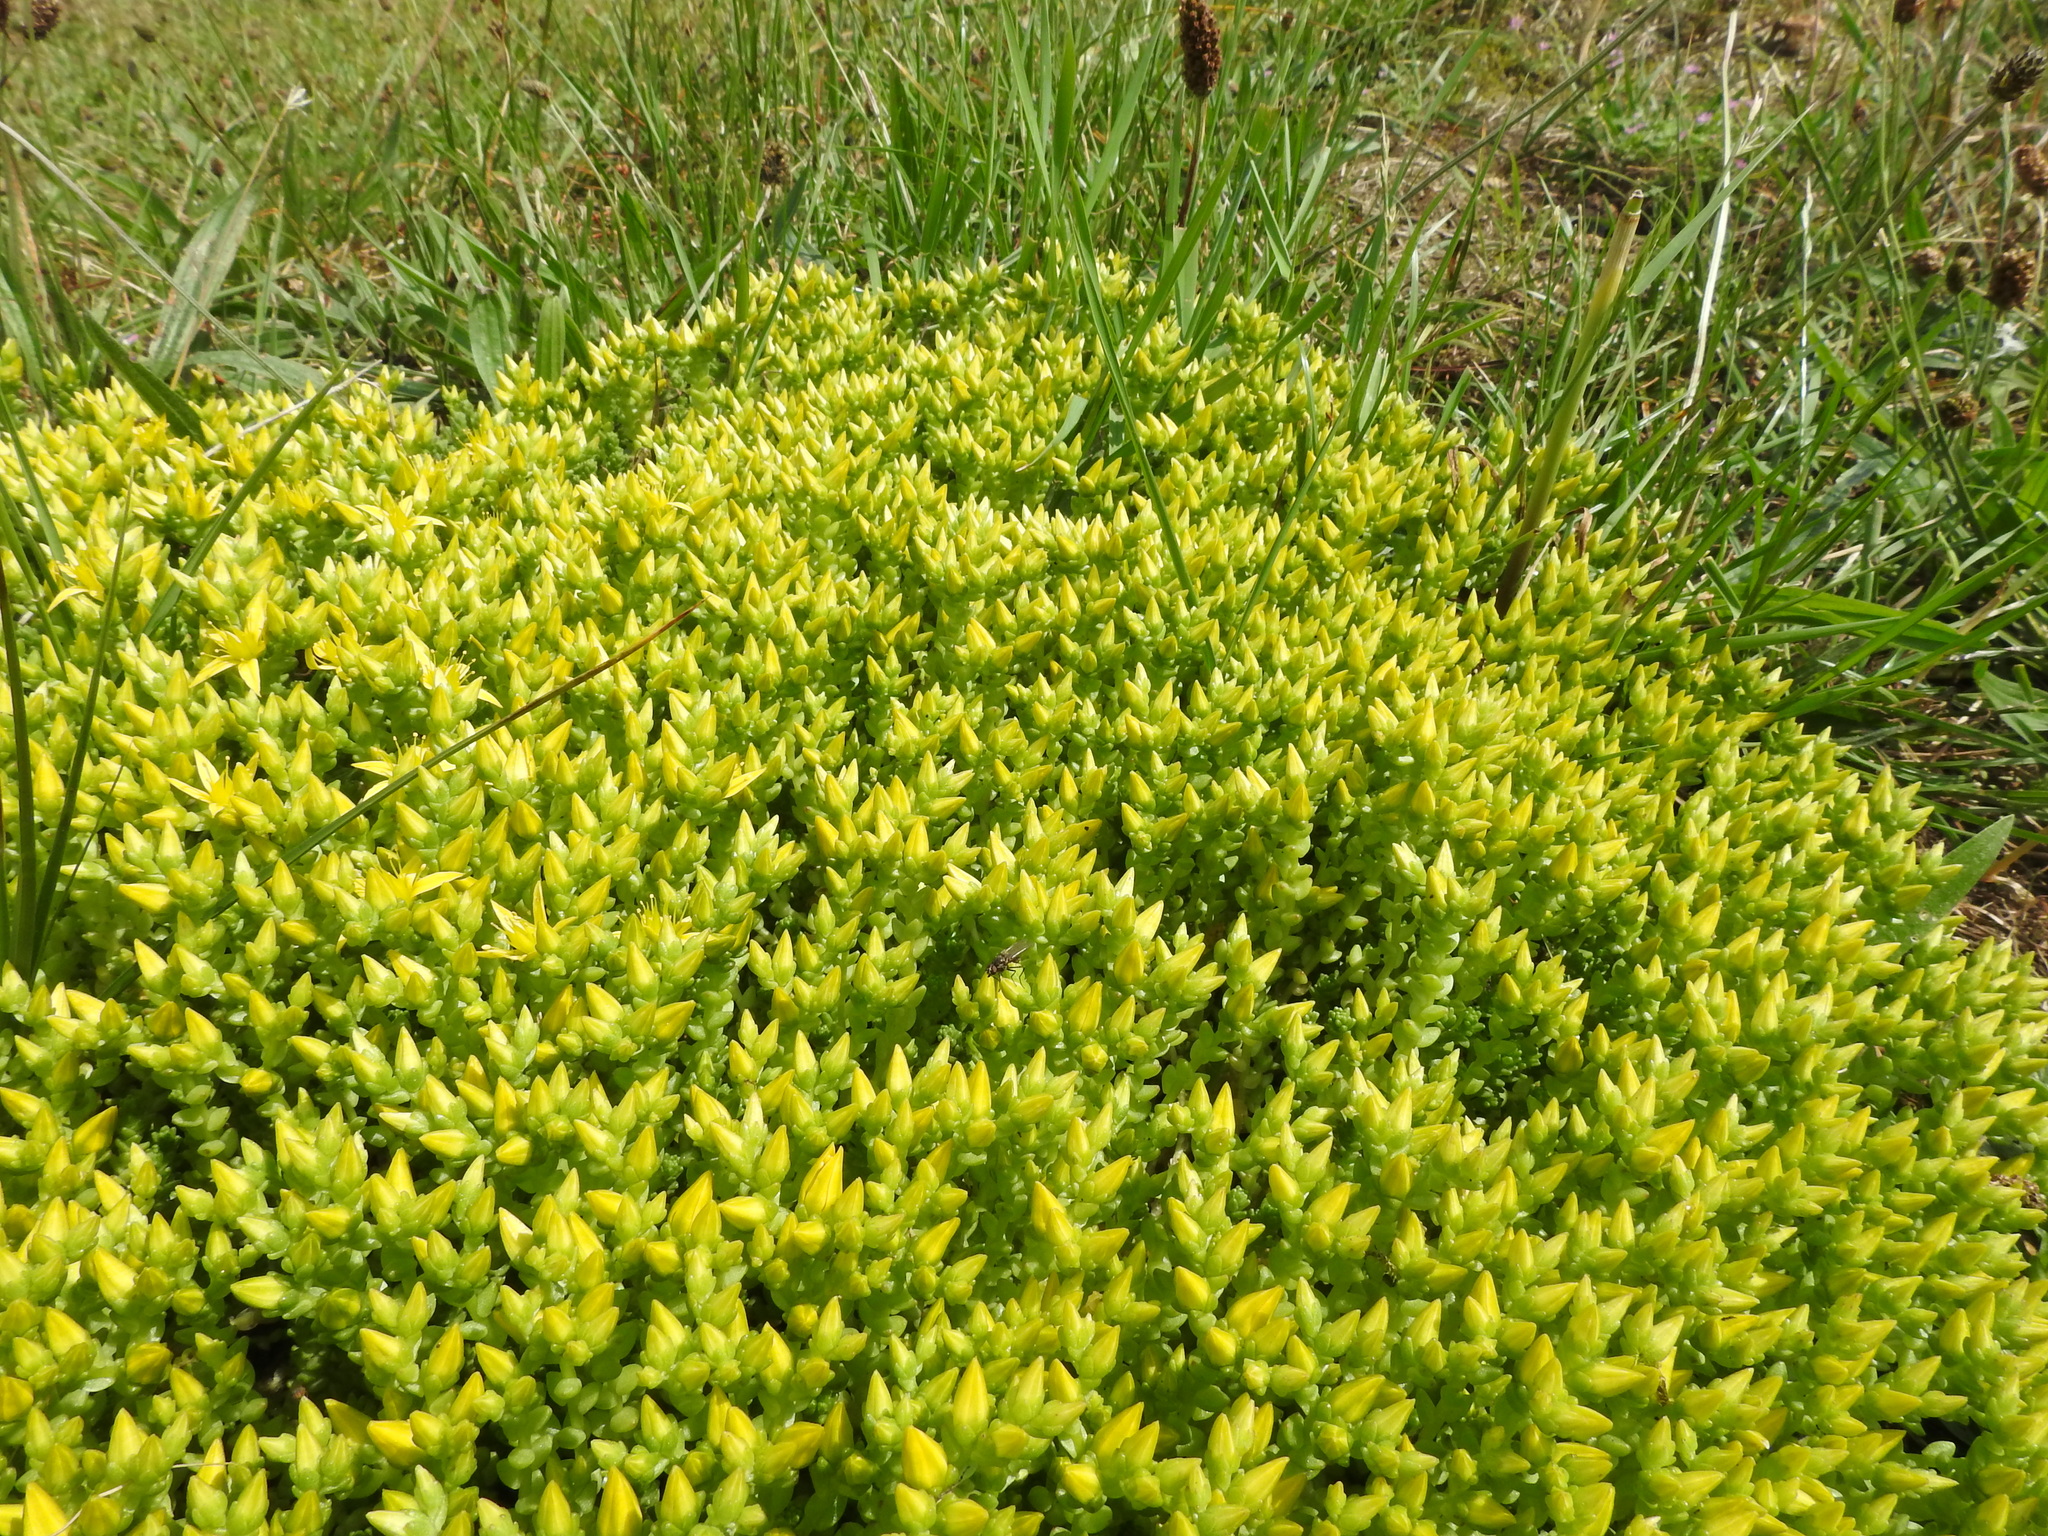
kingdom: Plantae
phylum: Tracheophyta
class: Magnoliopsida
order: Saxifragales
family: Crassulaceae
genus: Sedum
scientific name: Sedum acre
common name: Biting stonecrop
